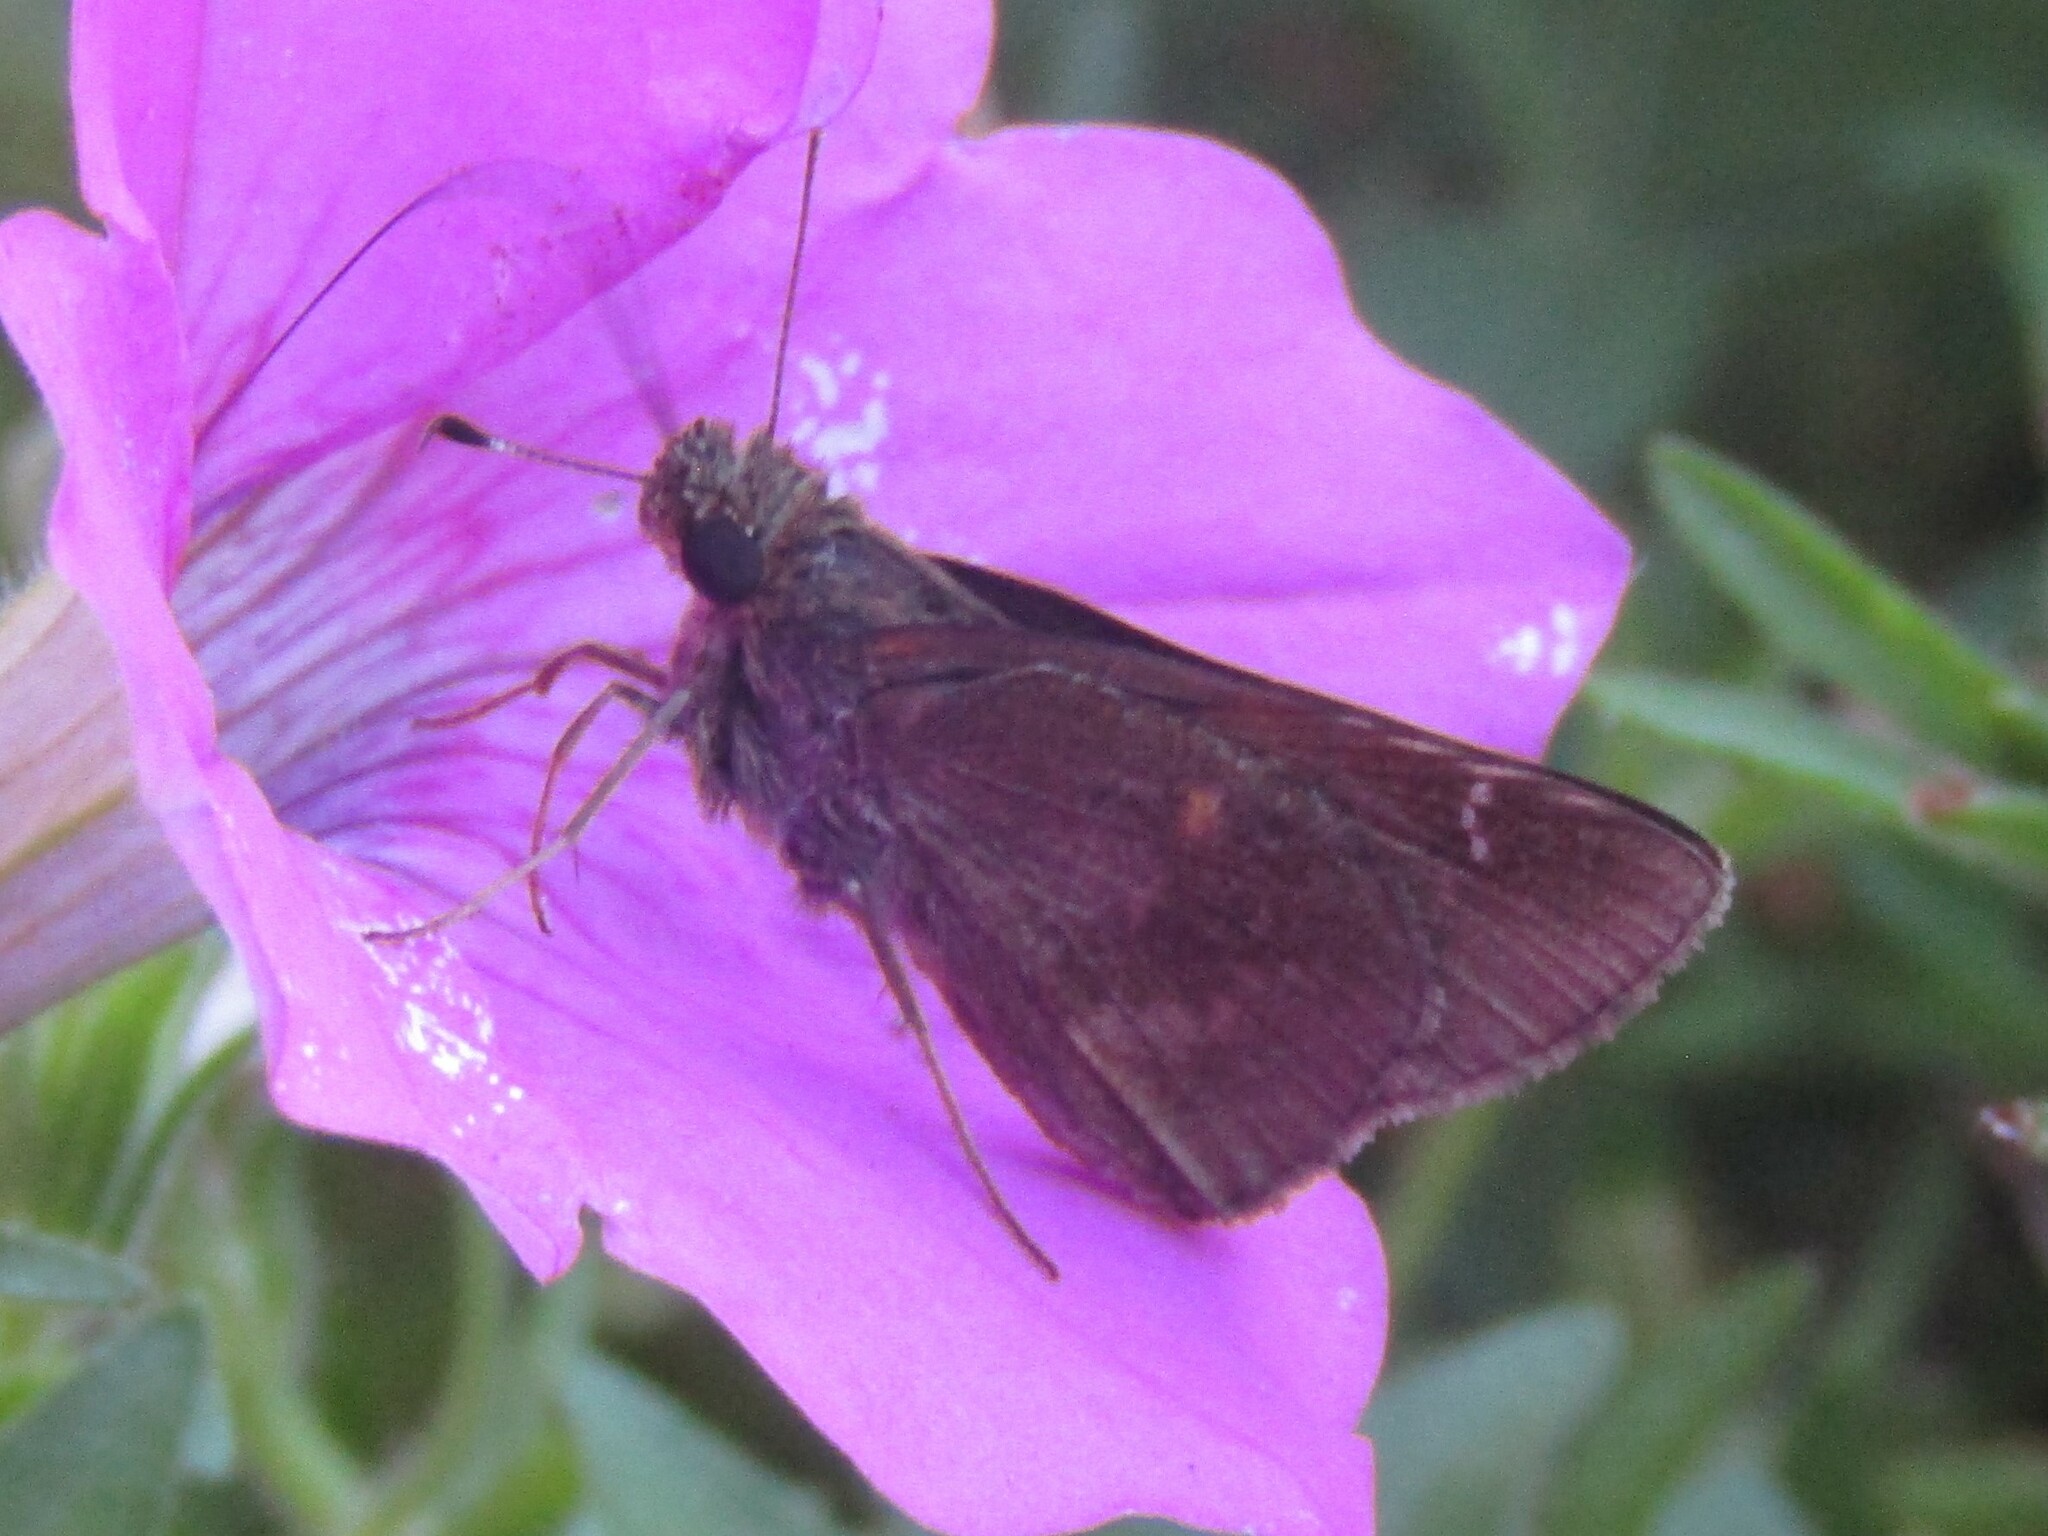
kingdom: Animalia
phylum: Arthropoda
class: Insecta
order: Lepidoptera
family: Hesperiidae
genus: Lerema
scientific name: Lerema accius
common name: Clouded skipper
